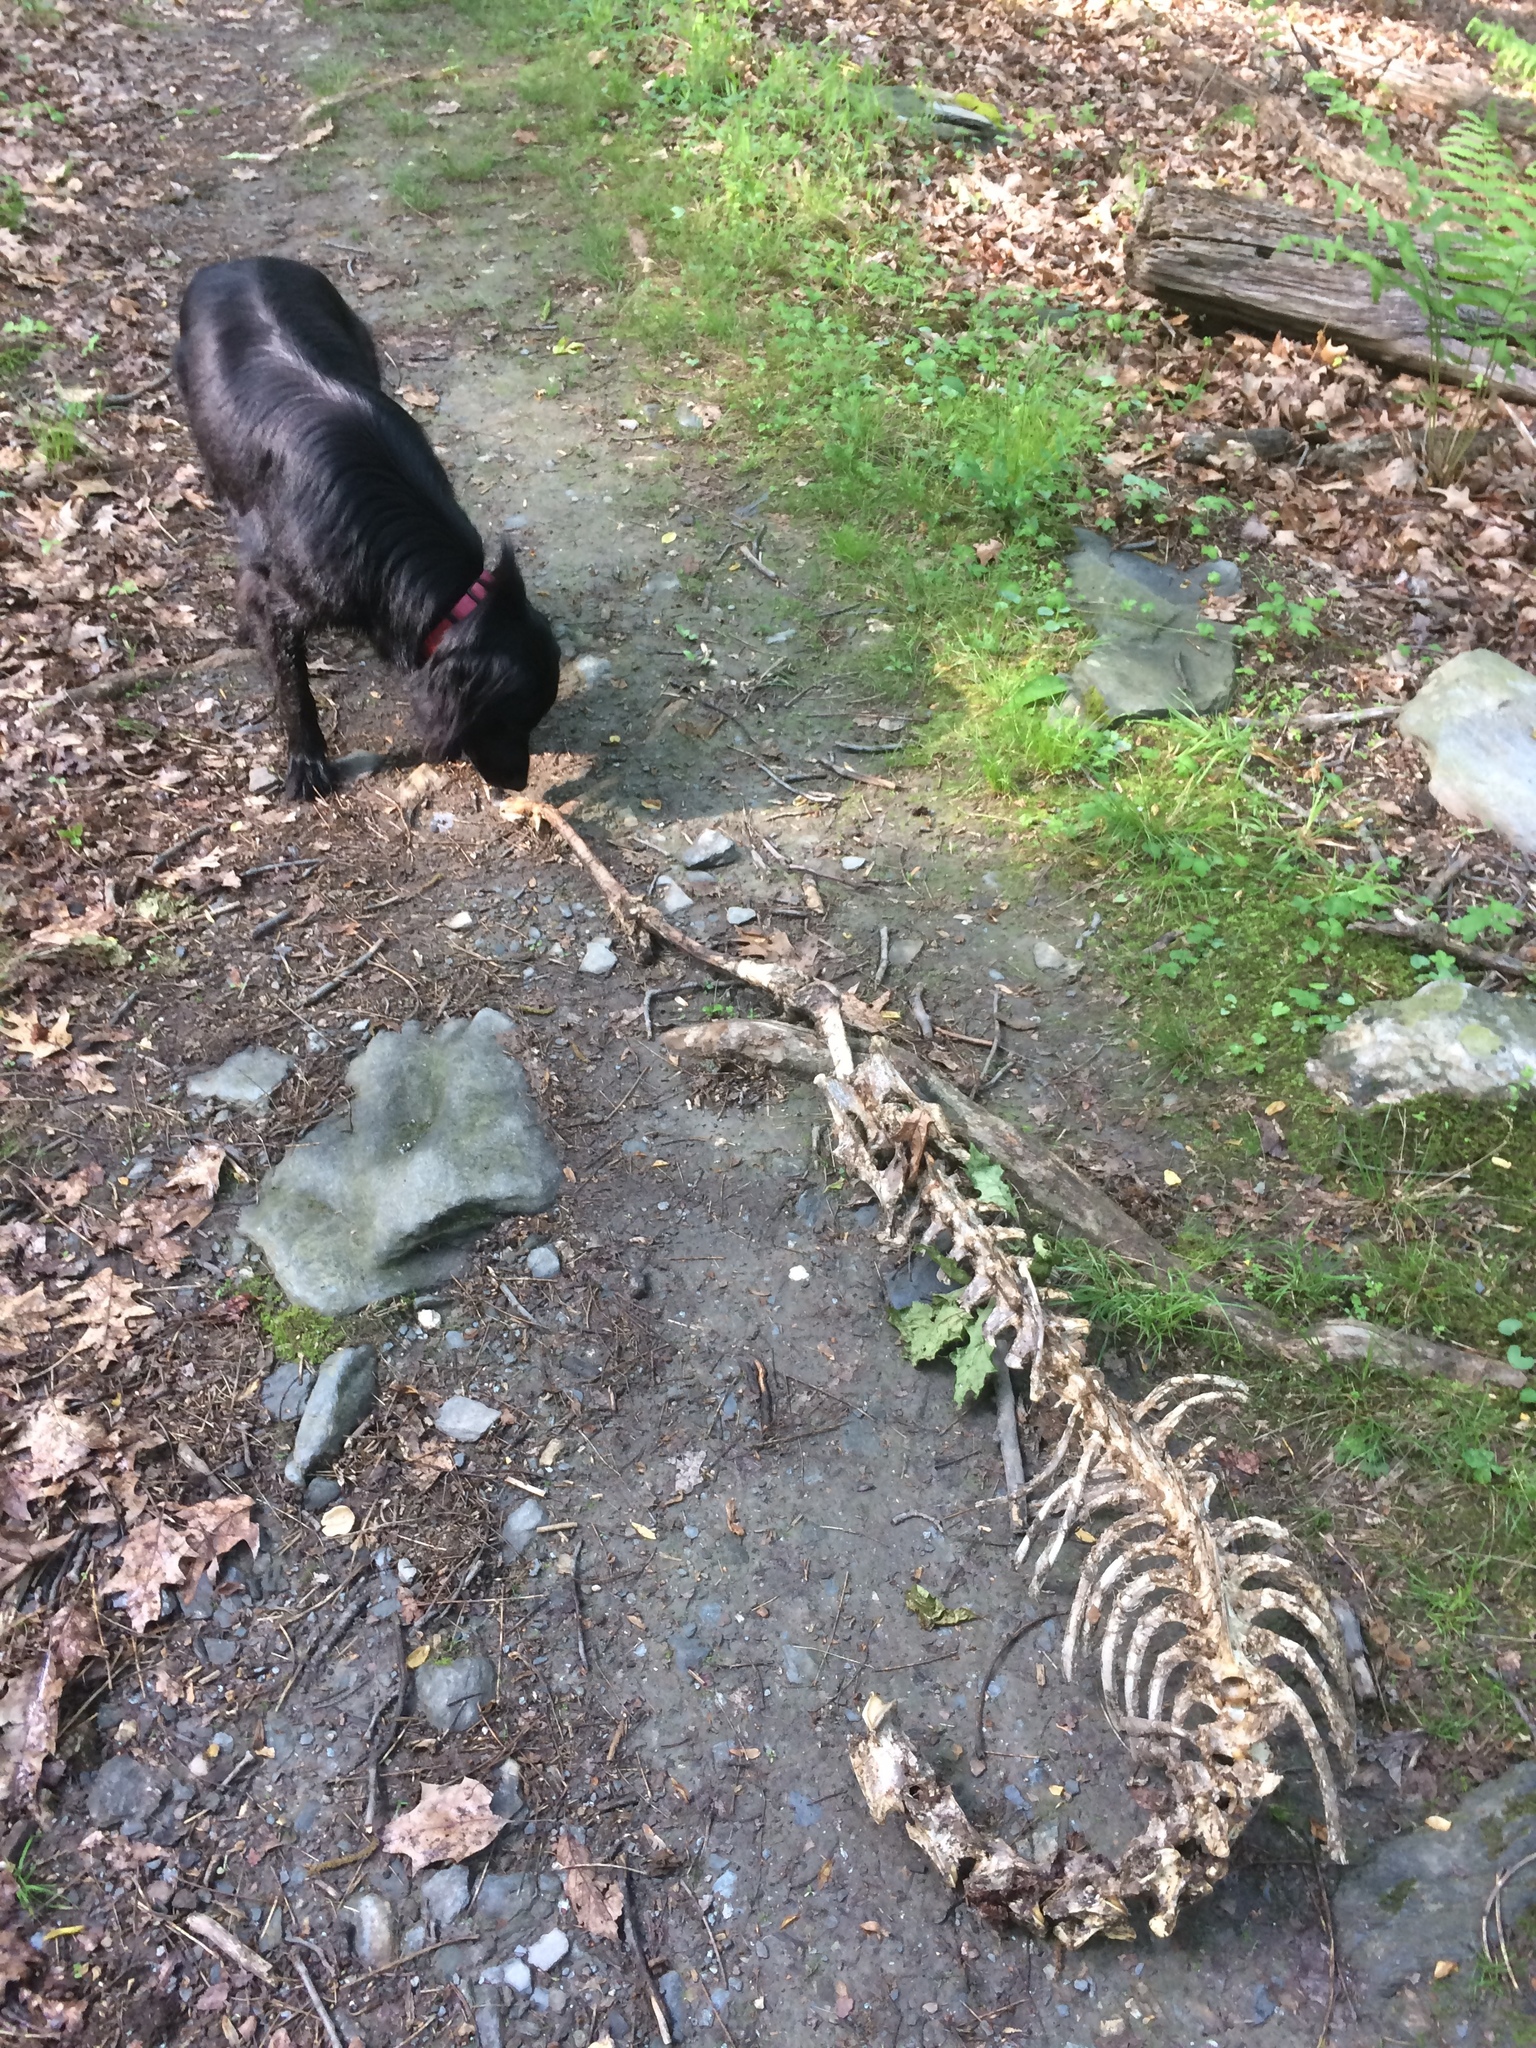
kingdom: Animalia
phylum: Chordata
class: Mammalia
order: Artiodactyla
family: Cervidae
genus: Odocoileus
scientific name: Odocoileus virginianus
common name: White-tailed deer
